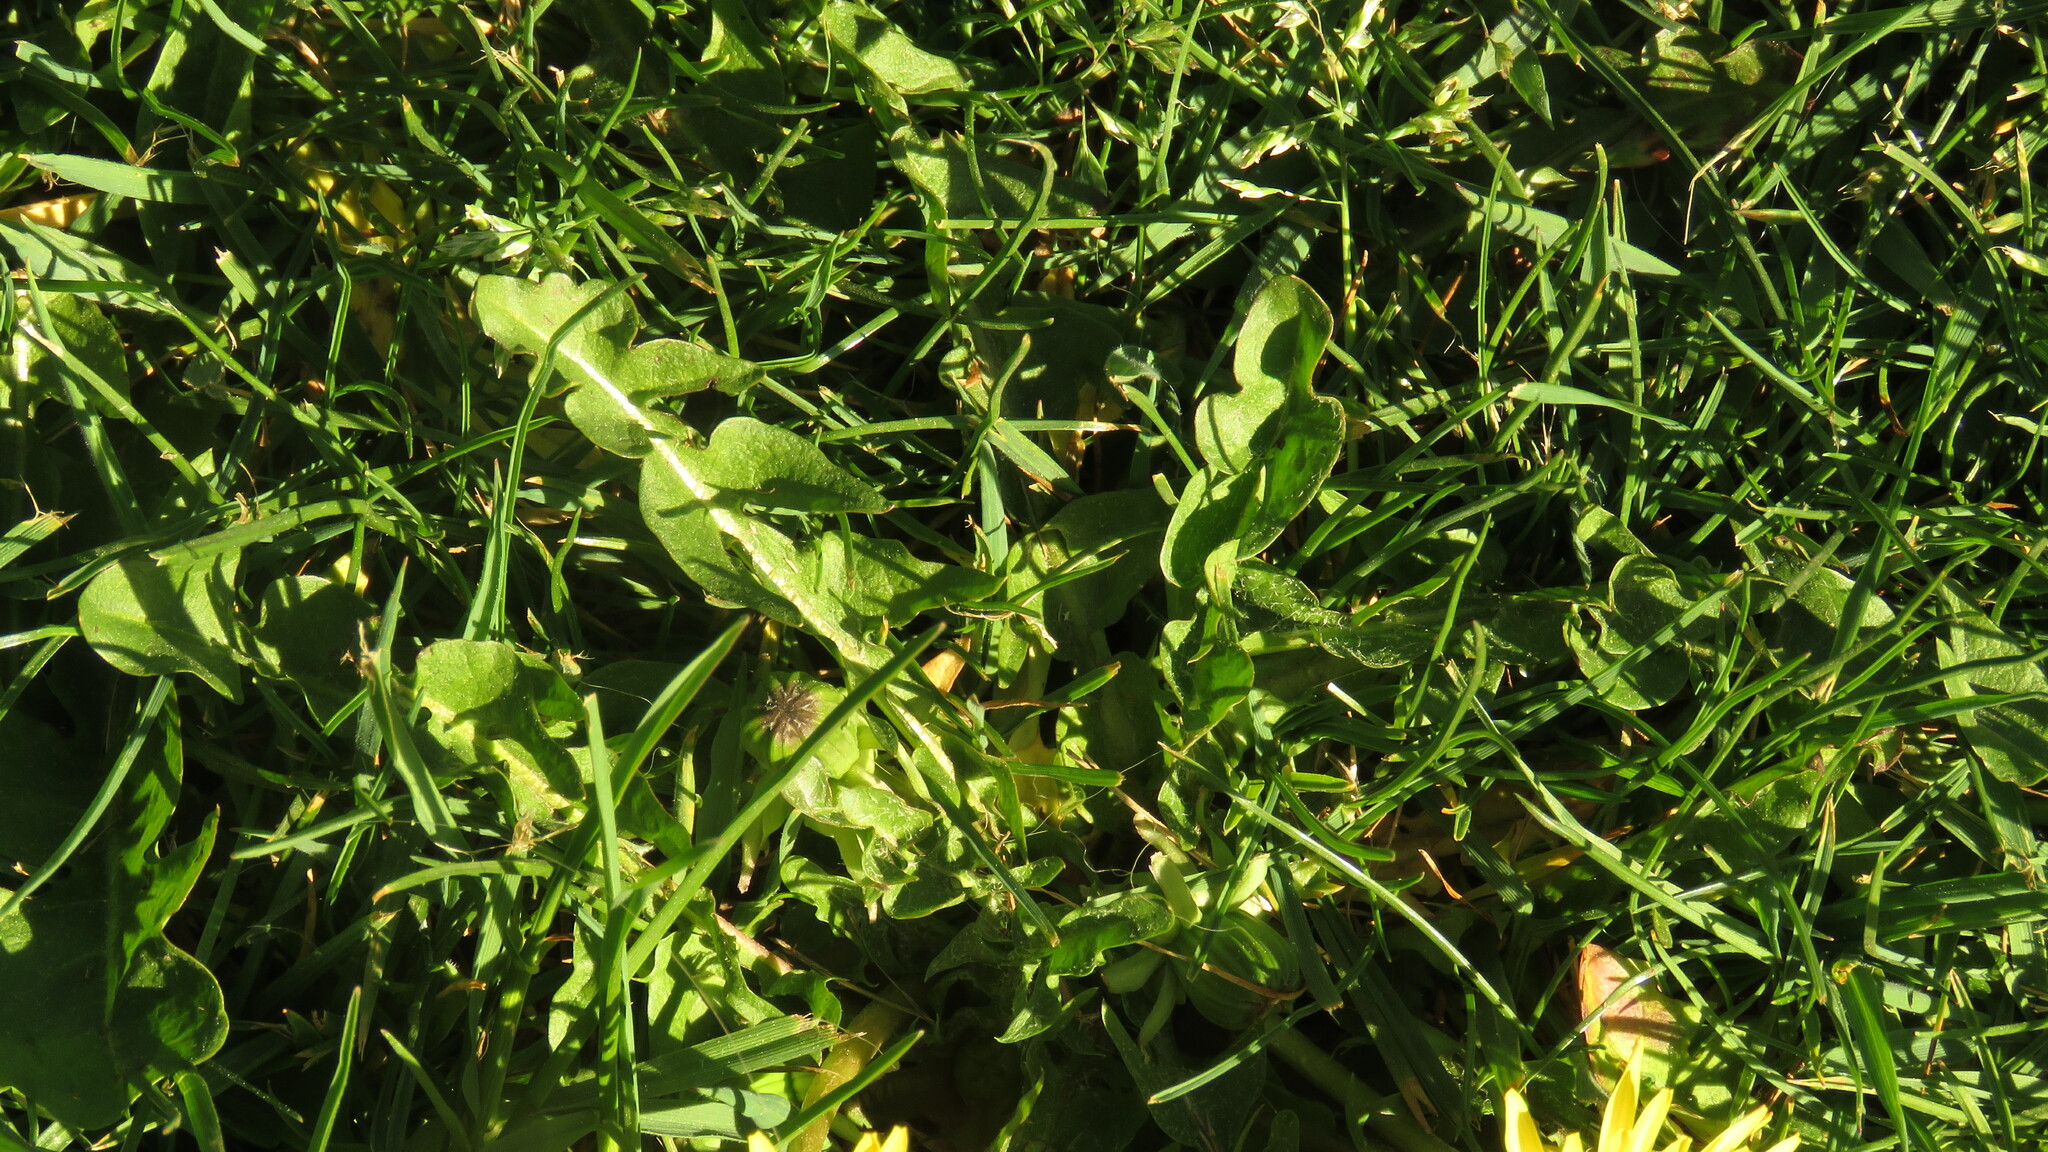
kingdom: Plantae
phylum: Tracheophyta
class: Magnoliopsida
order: Asterales
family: Asteraceae
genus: Taraxacum
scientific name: Taraxacum officinale
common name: Common dandelion
